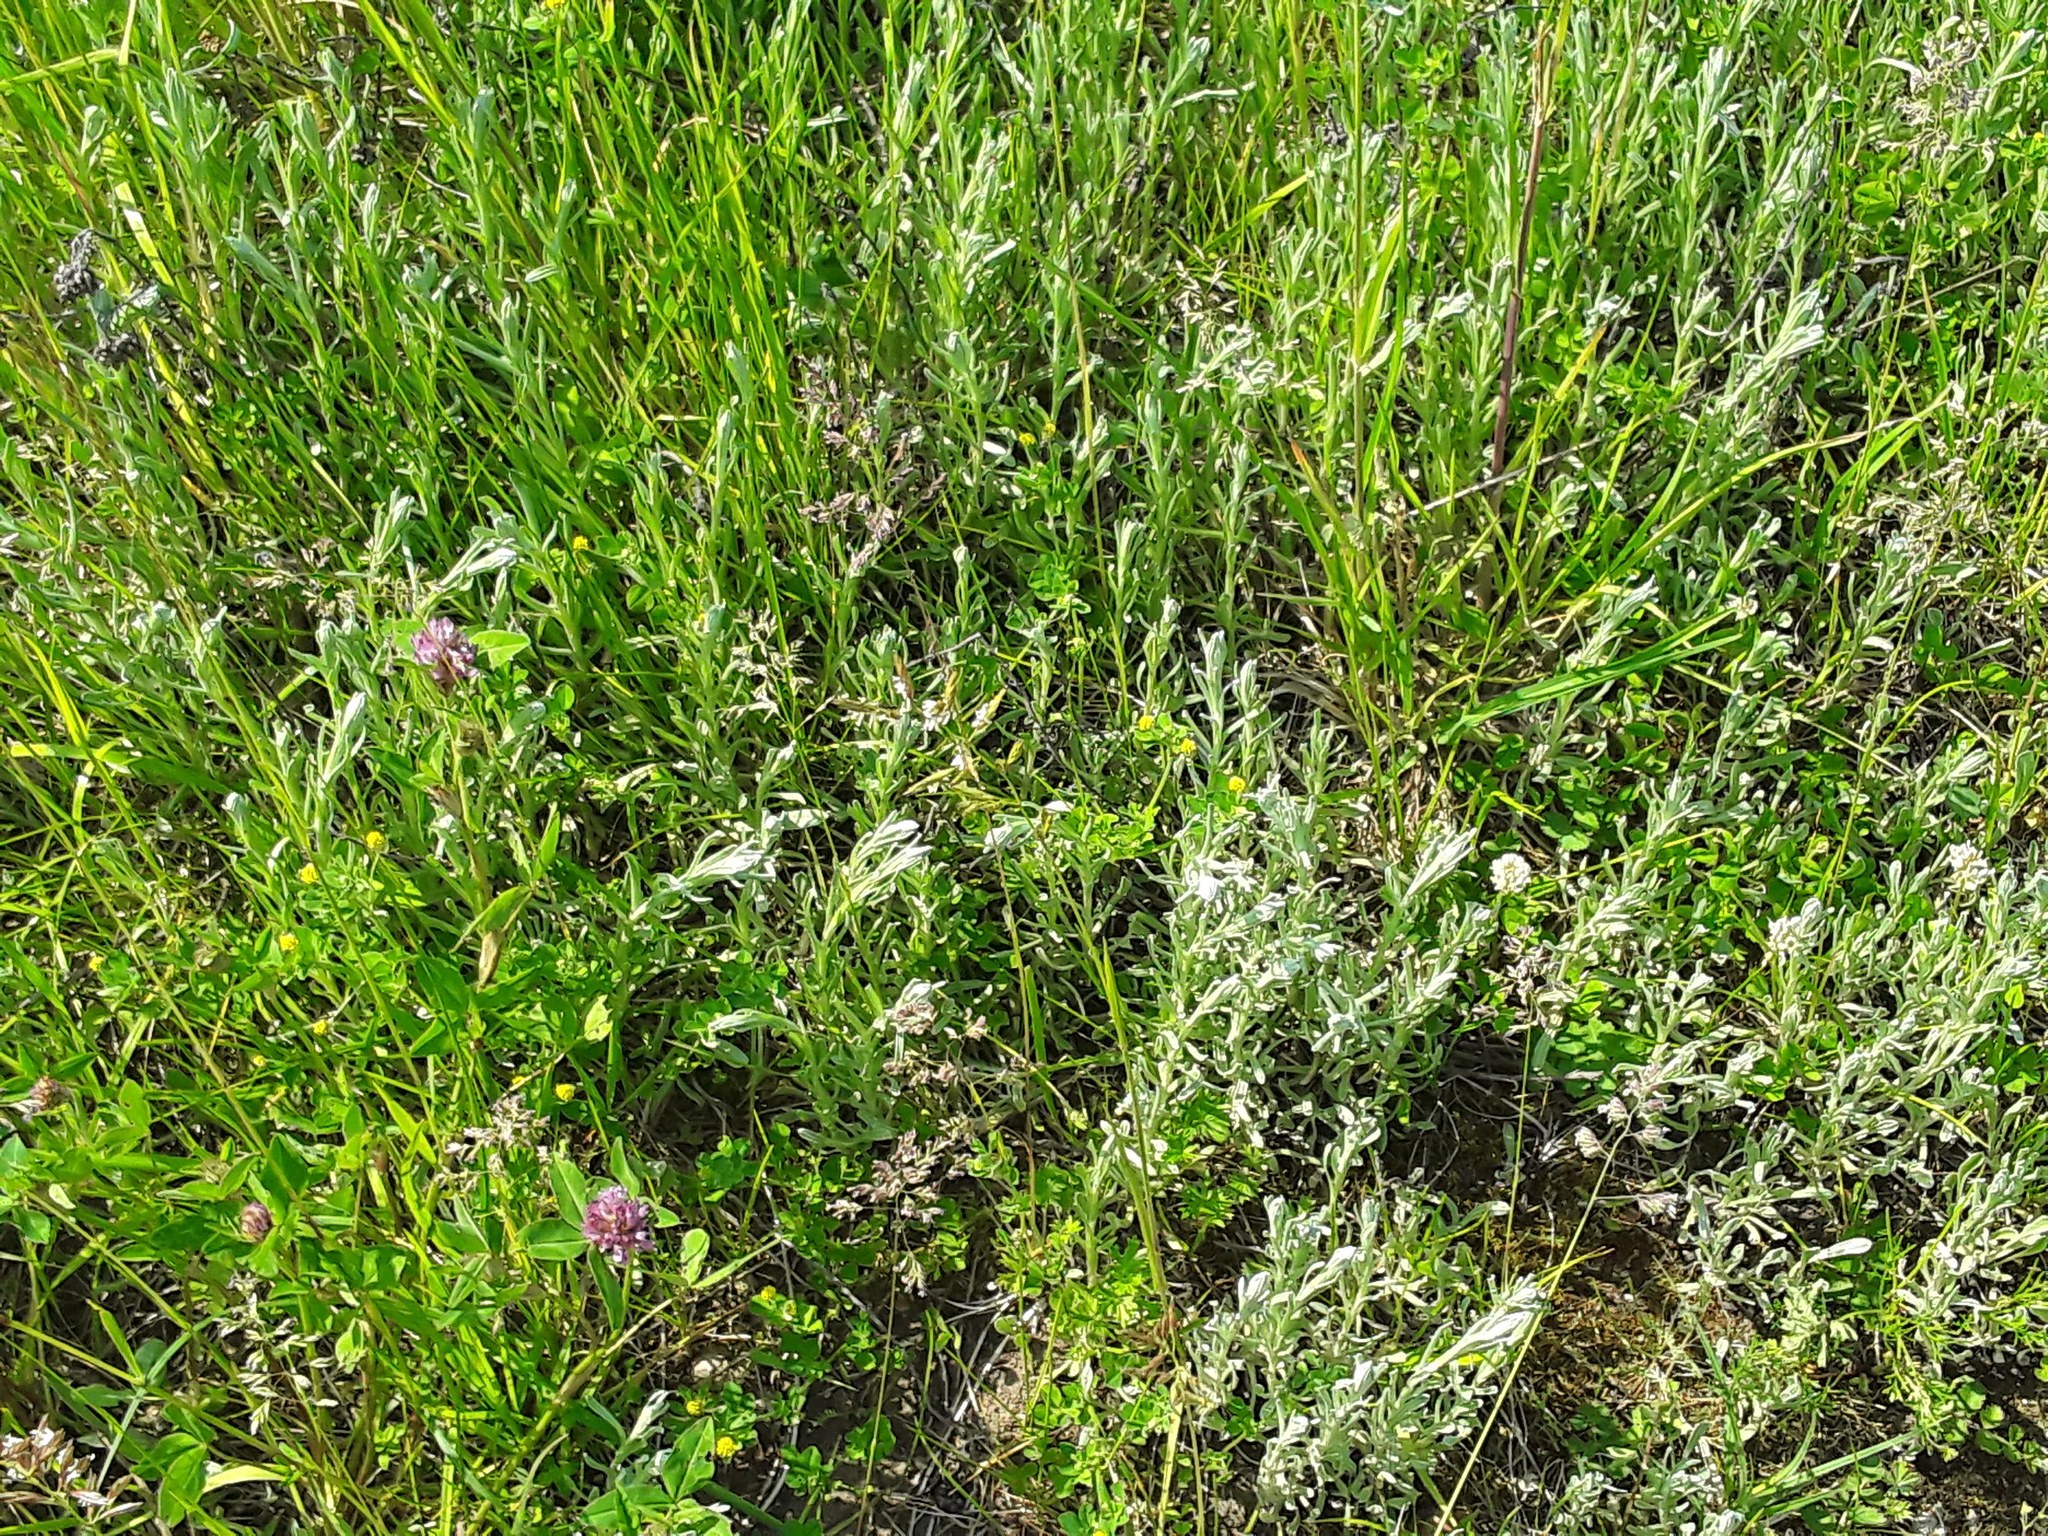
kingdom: Plantae
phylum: Tracheophyta
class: Magnoliopsida
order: Asterales
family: Asteraceae
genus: Helichrysum
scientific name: Helichrysum arenarium
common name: Strawflower
